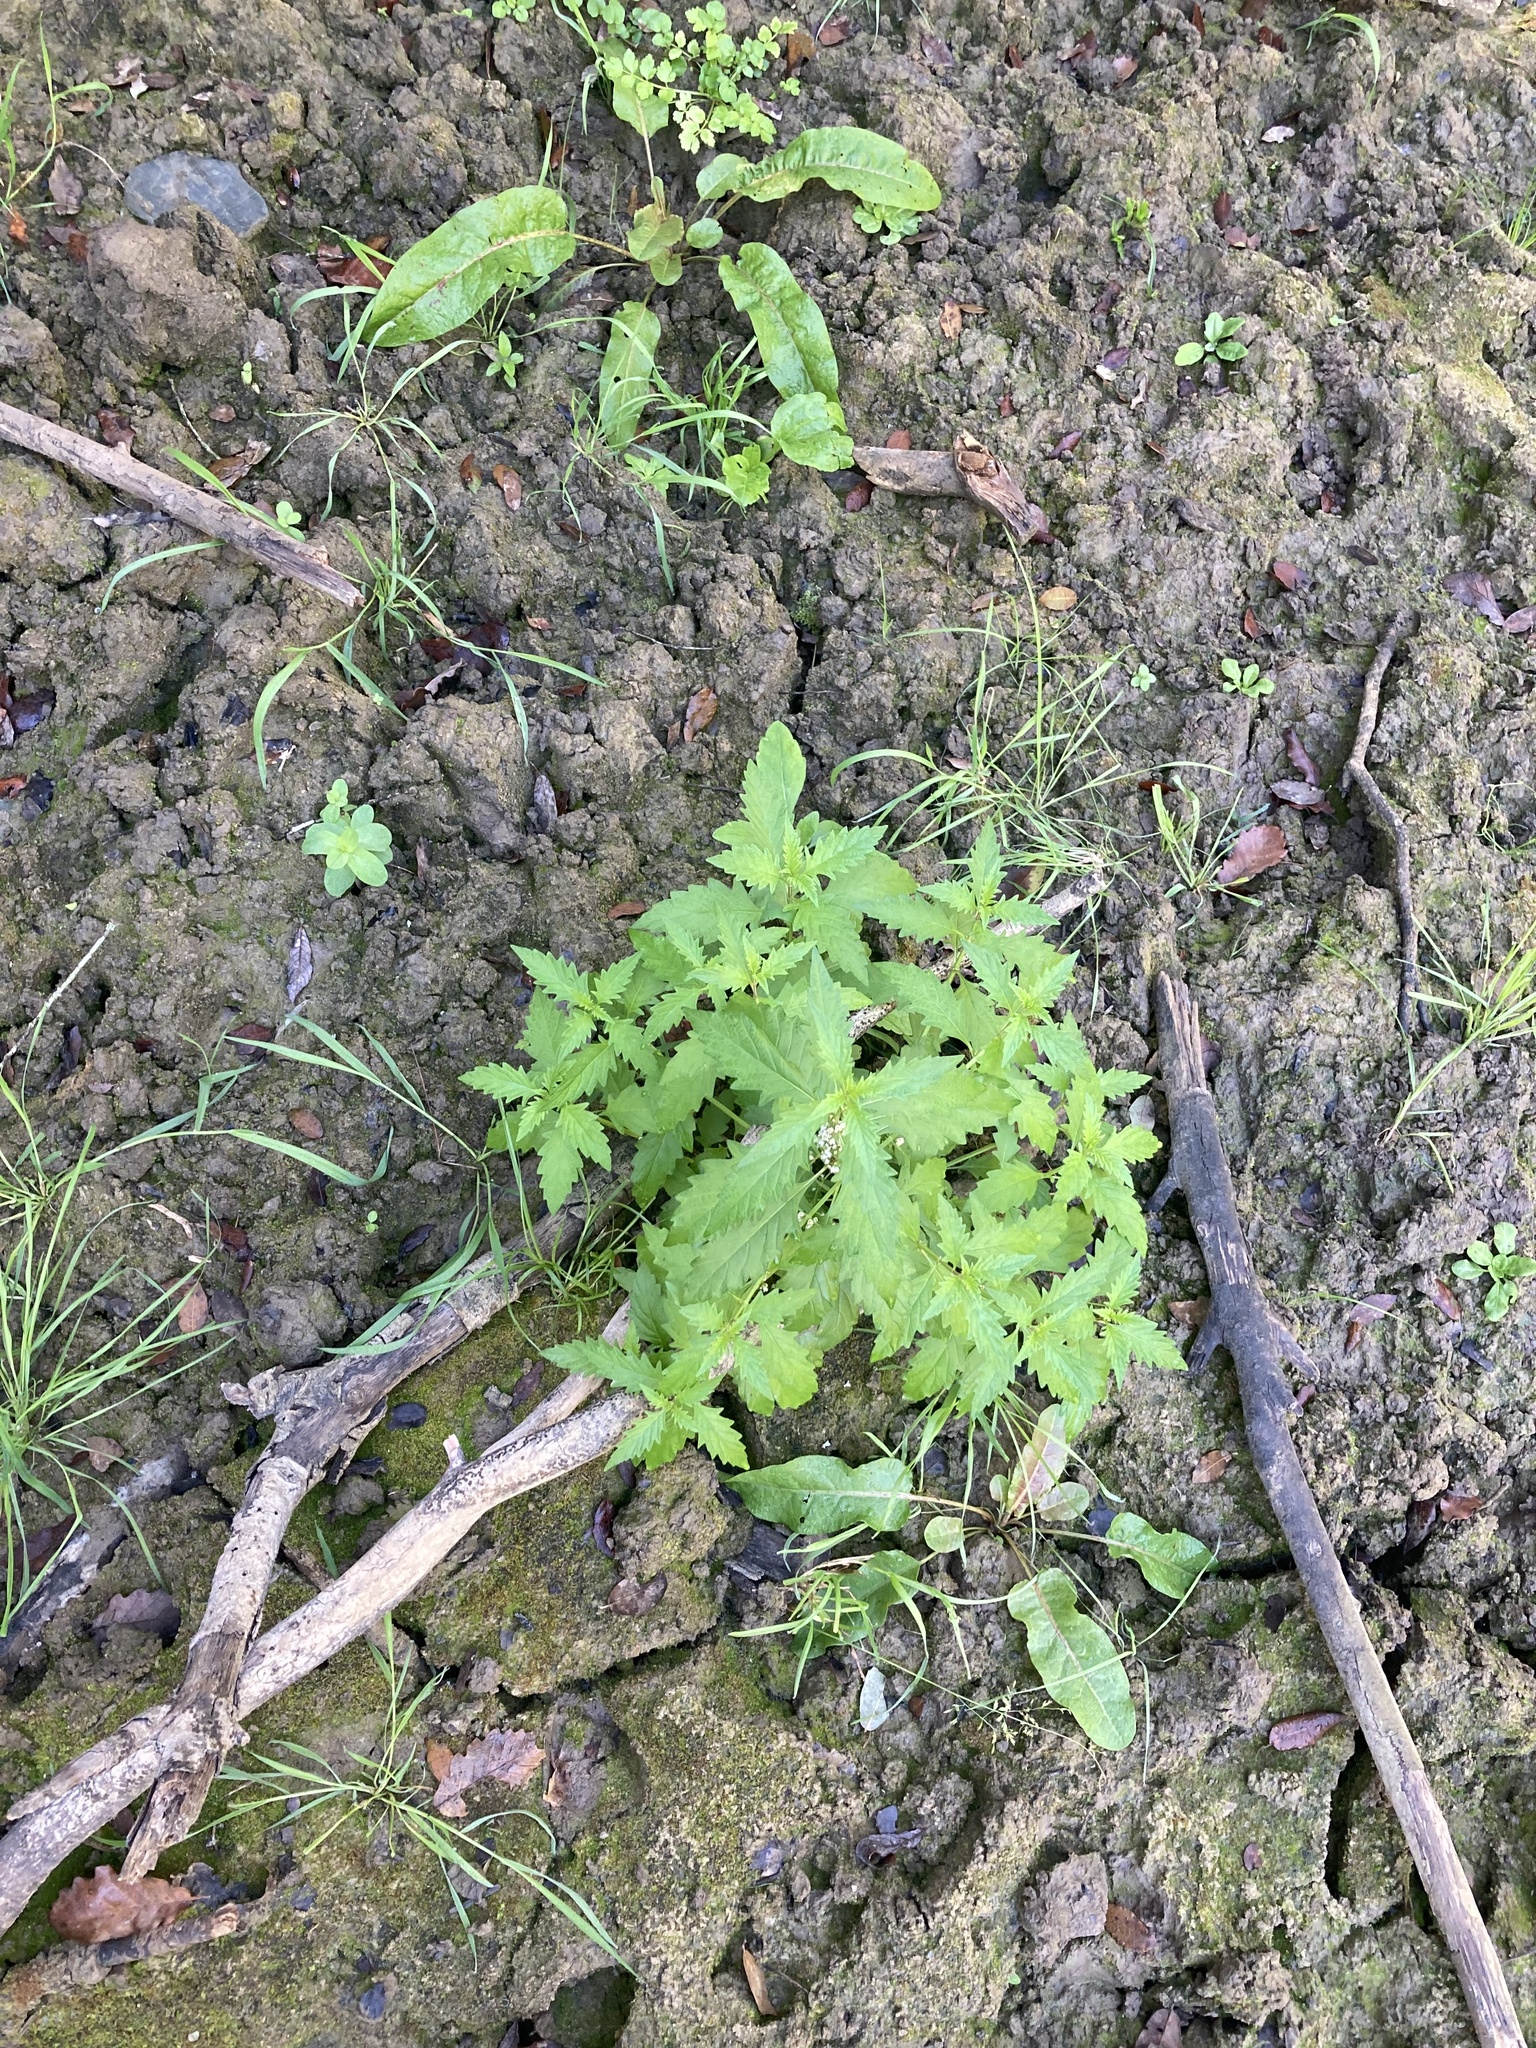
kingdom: Plantae
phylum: Tracheophyta
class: Magnoliopsida
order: Lamiales
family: Lamiaceae
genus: Lycopus
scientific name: Lycopus europaeus
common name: European bugleweed
